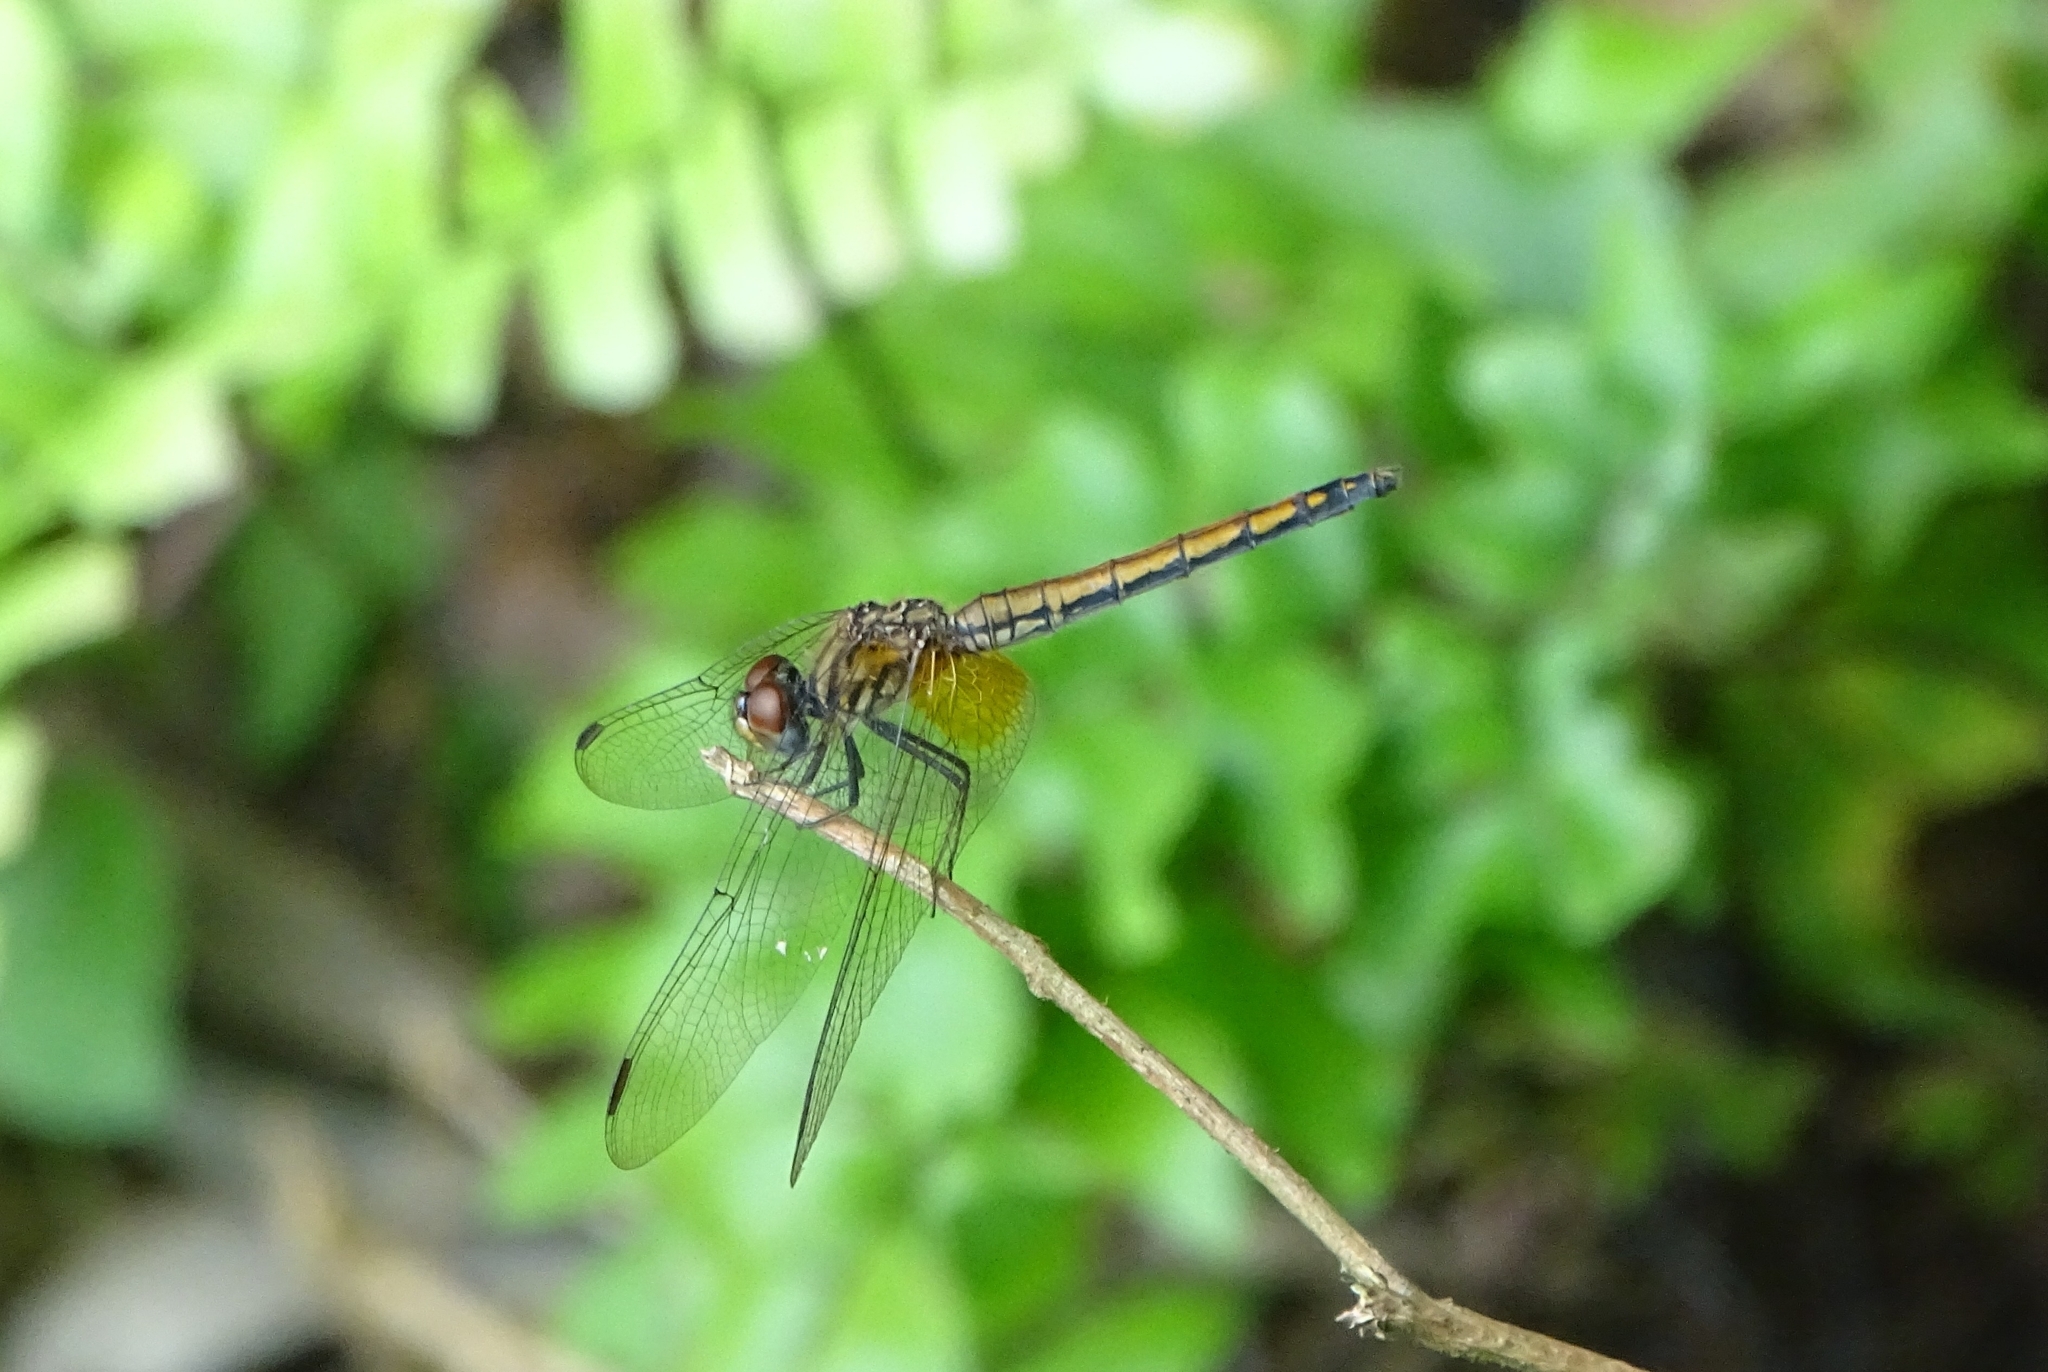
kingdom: Animalia
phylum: Arthropoda
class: Insecta
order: Odonata
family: Libellulidae
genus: Trithemis
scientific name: Trithemis aurora
